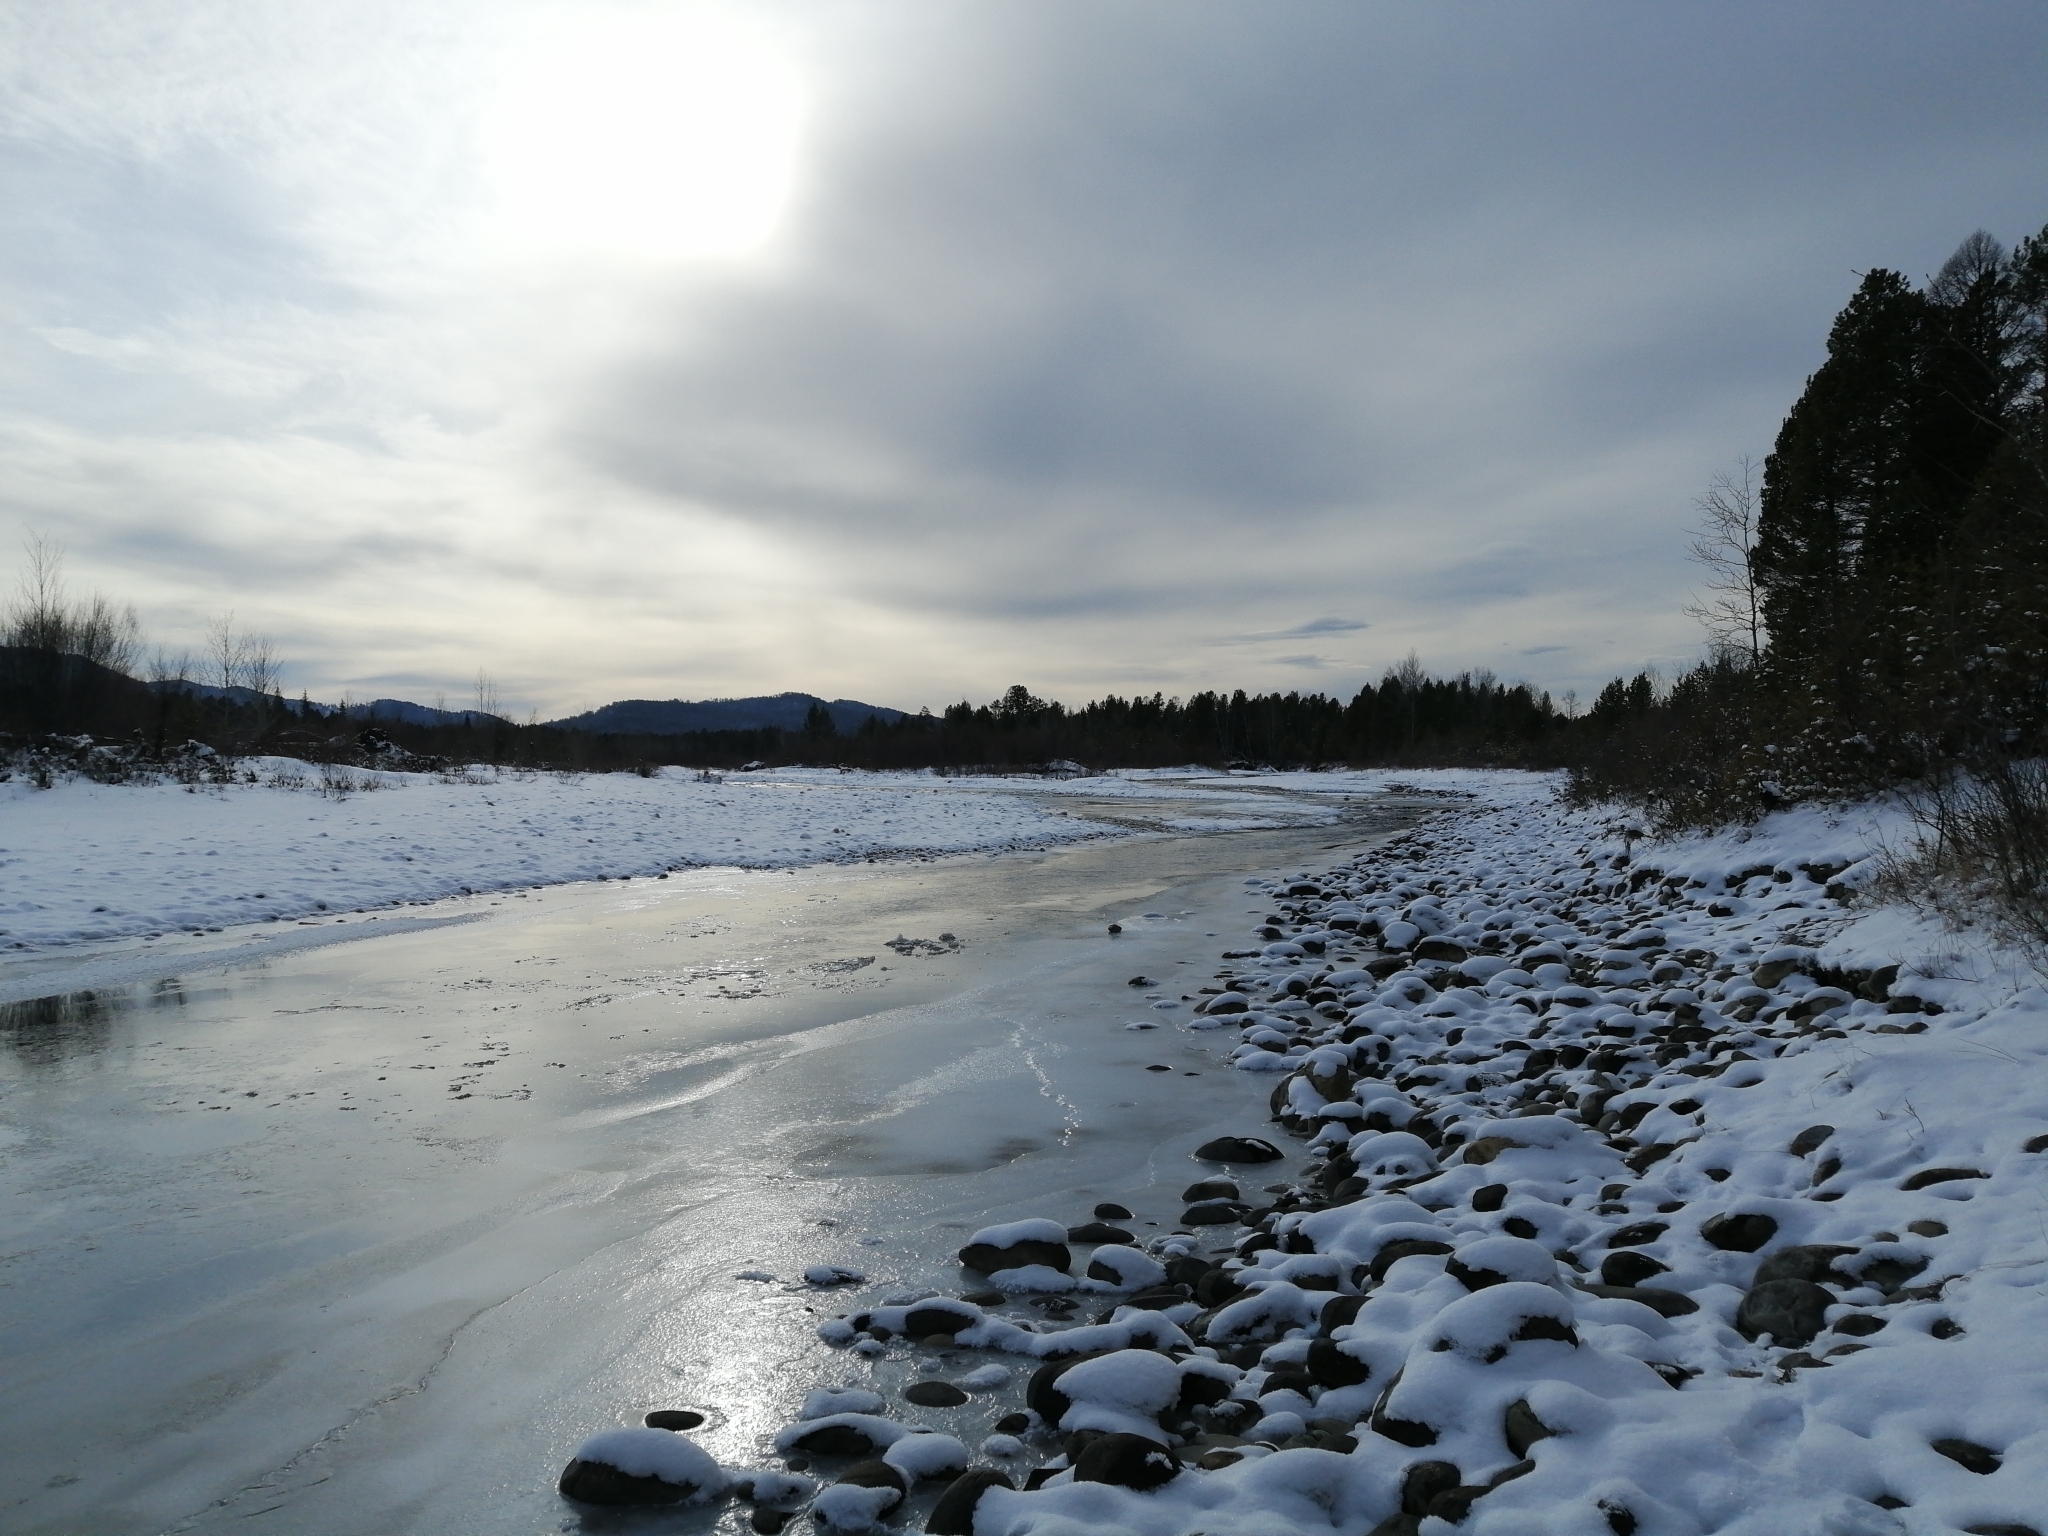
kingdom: Plantae
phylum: Tracheophyta
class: Pinopsida
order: Pinales
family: Pinaceae
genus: Pinus
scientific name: Pinus sylvestris
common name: Scots pine
